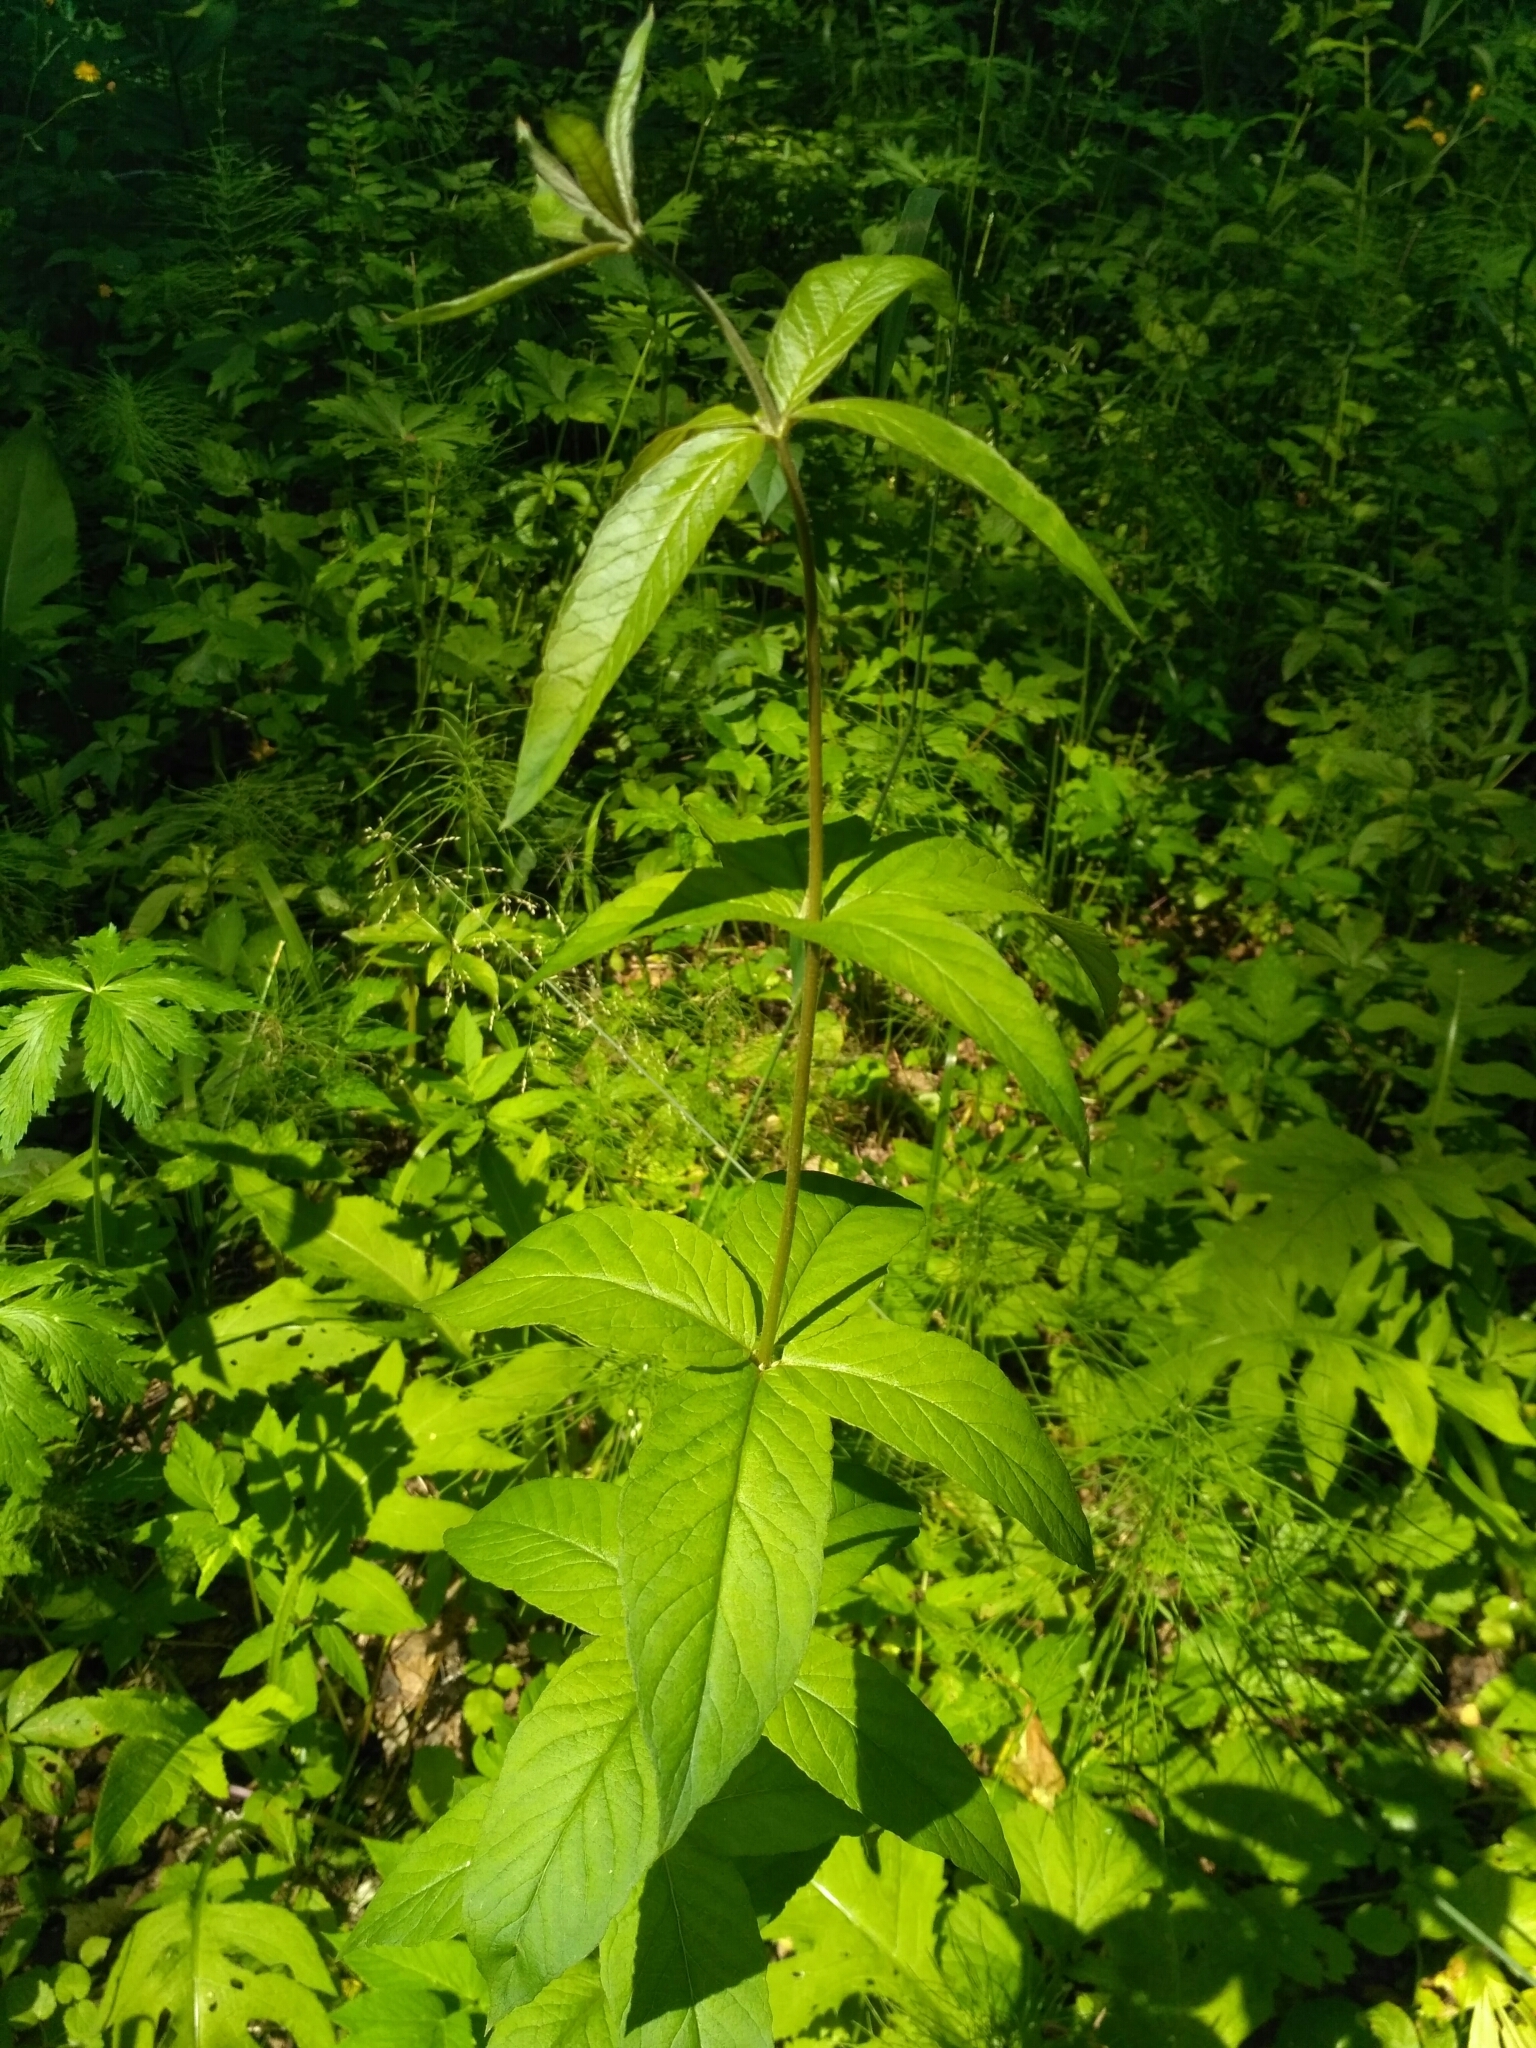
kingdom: Plantae
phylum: Tracheophyta
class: Magnoliopsida
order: Ericales
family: Primulaceae
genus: Lysimachia
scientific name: Lysimachia vulgaris
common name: Yellow loosestrife
